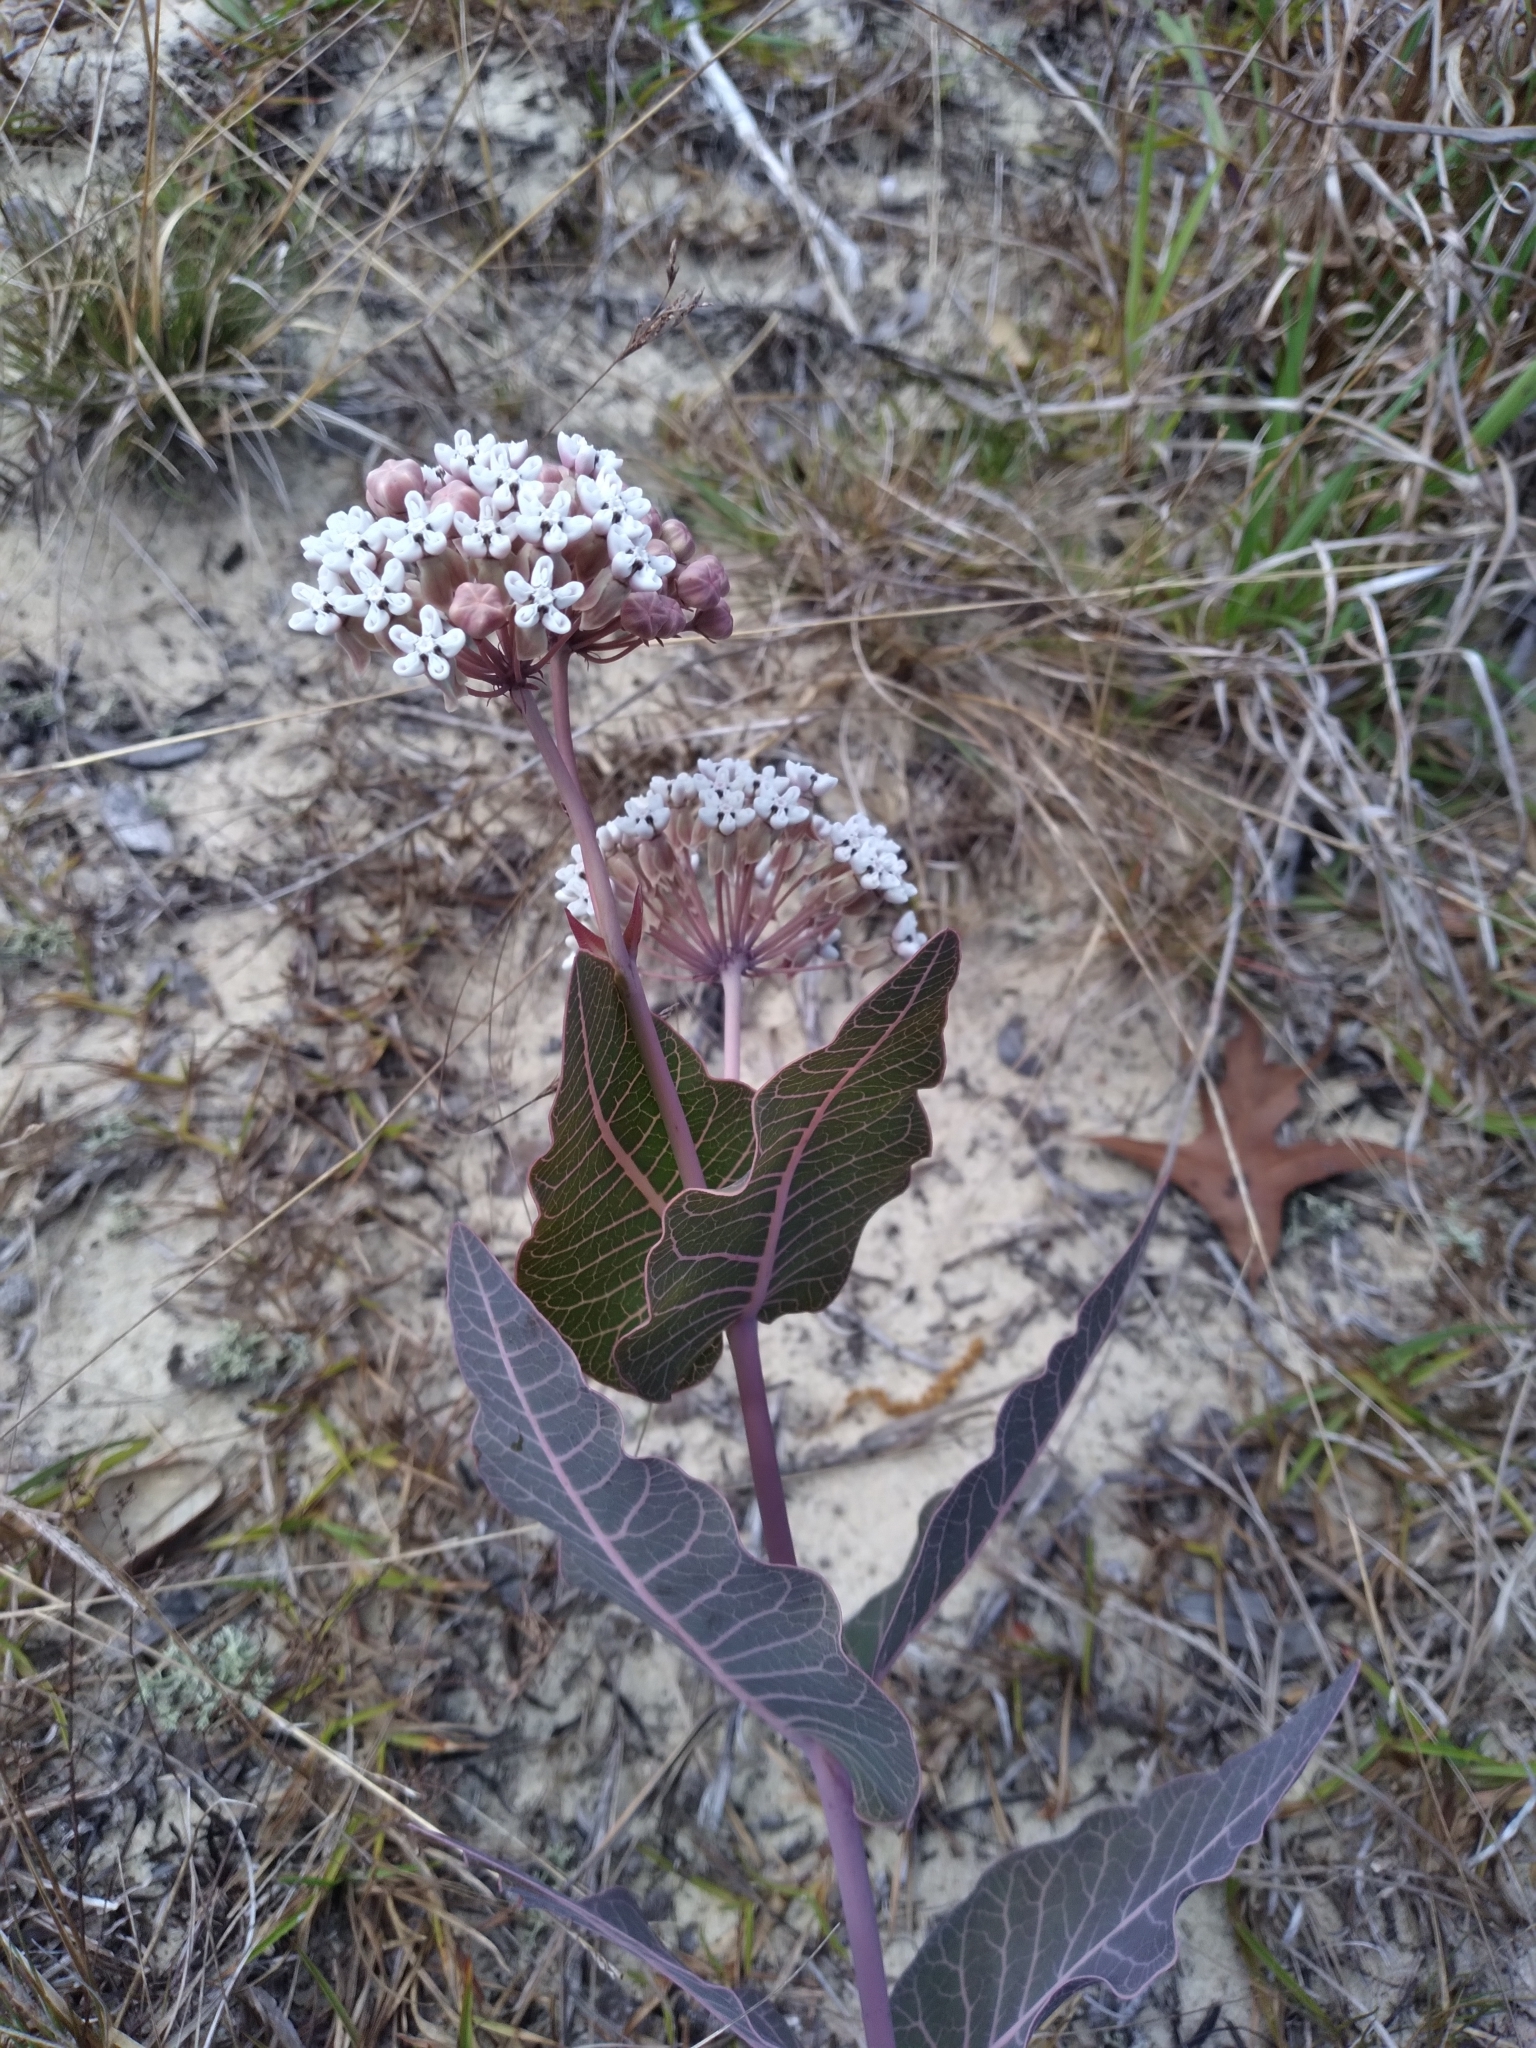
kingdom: Plantae
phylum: Tracheophyta
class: Magnoliopsida
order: Gentianales
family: Apocynaceae
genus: Asclepias
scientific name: Asclepias humistrata
